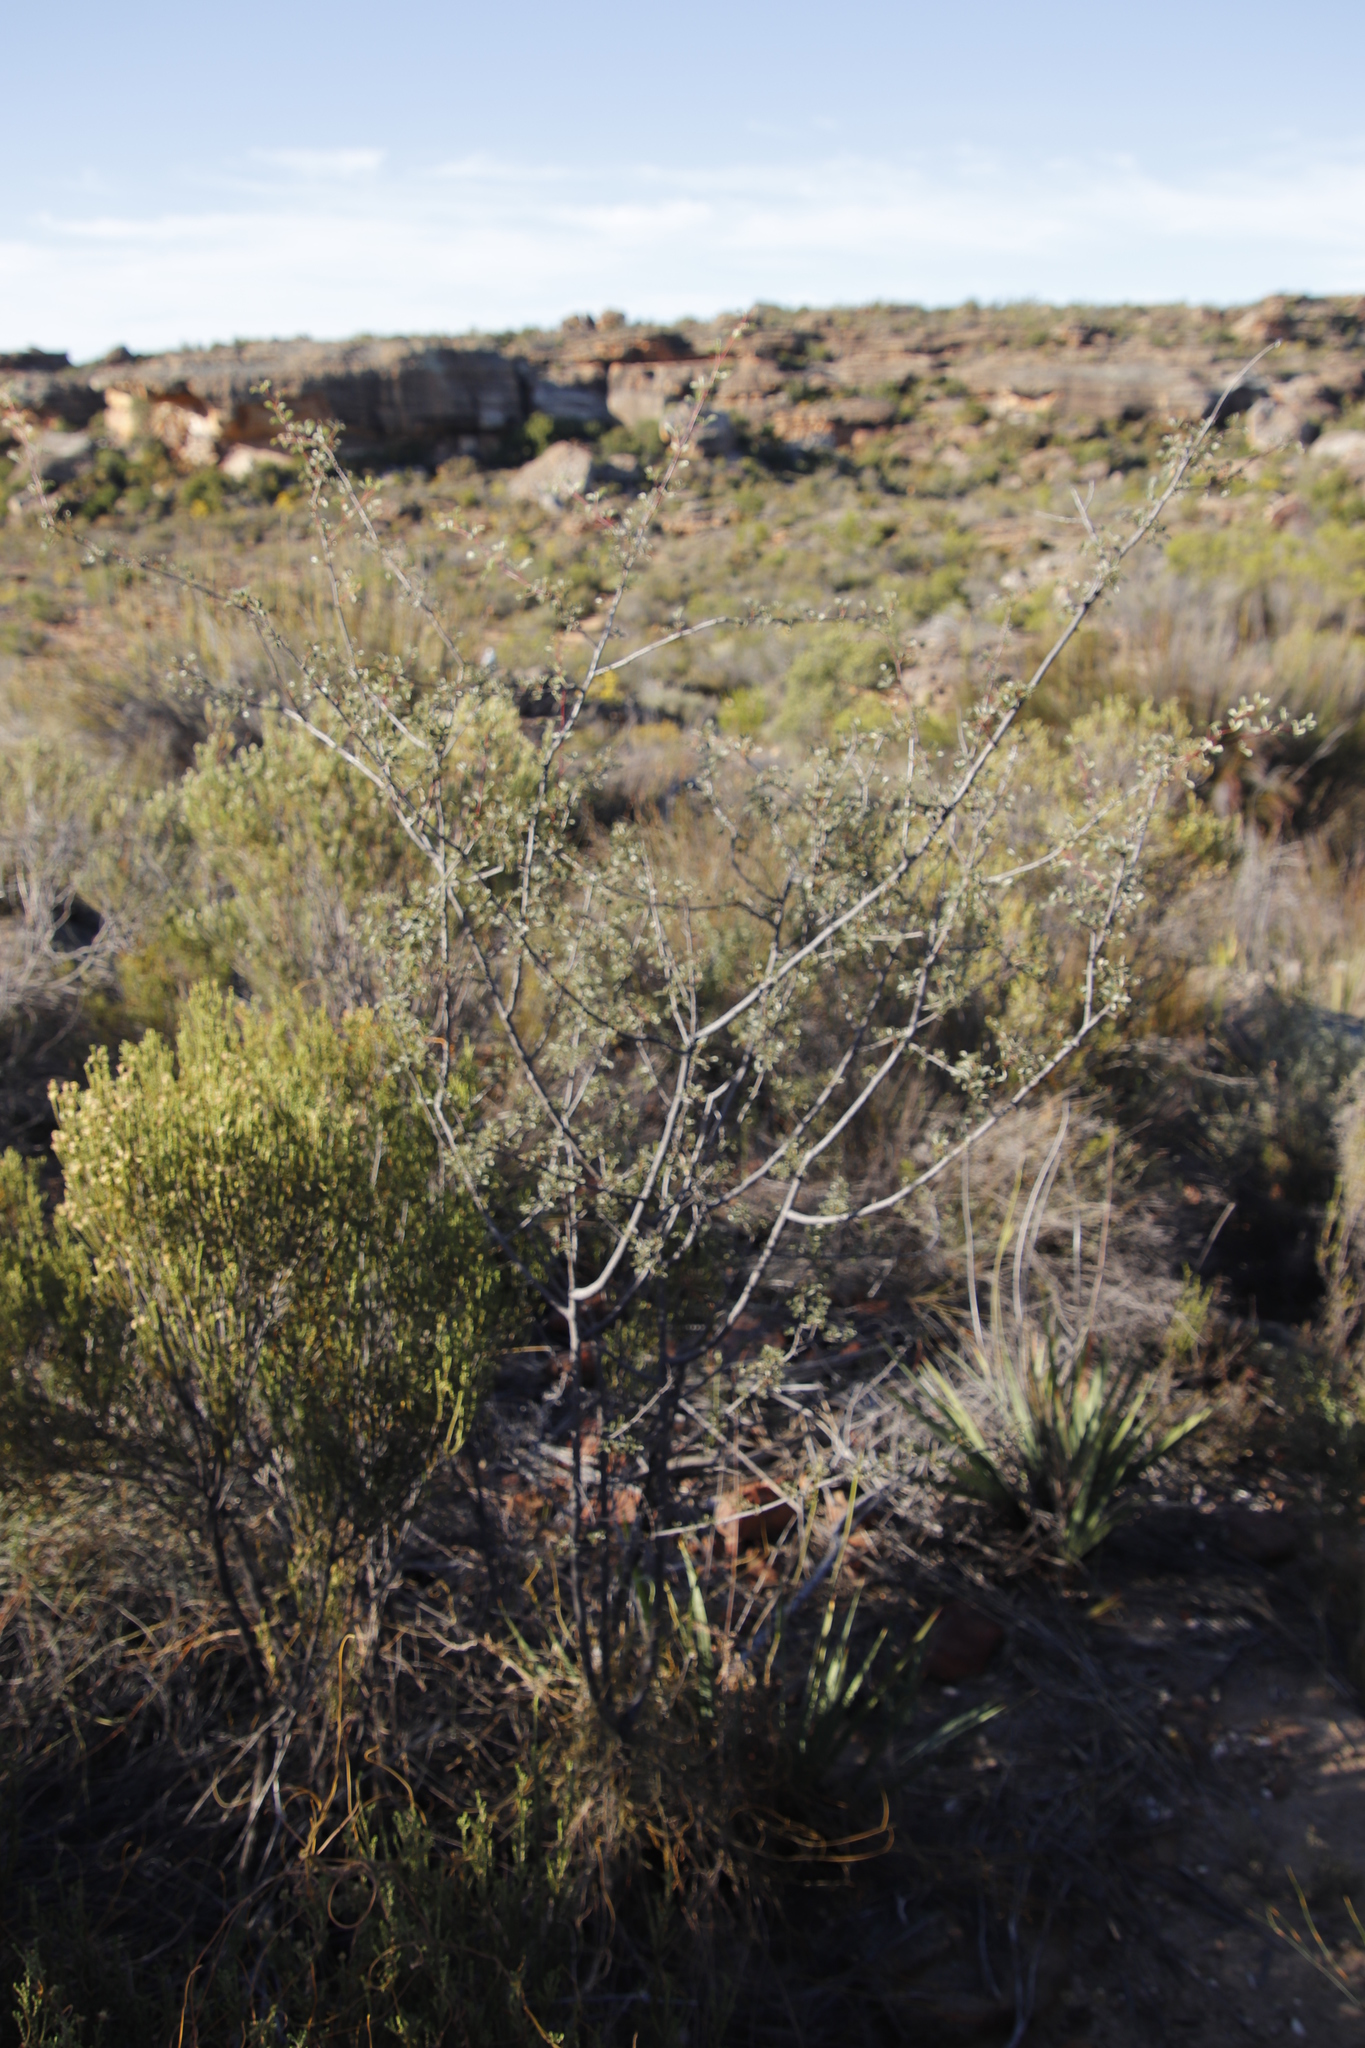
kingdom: Plantae
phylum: Tracheophyta
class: Magnoliopsida
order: Sapindales
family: Anacardiaceae
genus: Searsia
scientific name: Searsia dissecta
